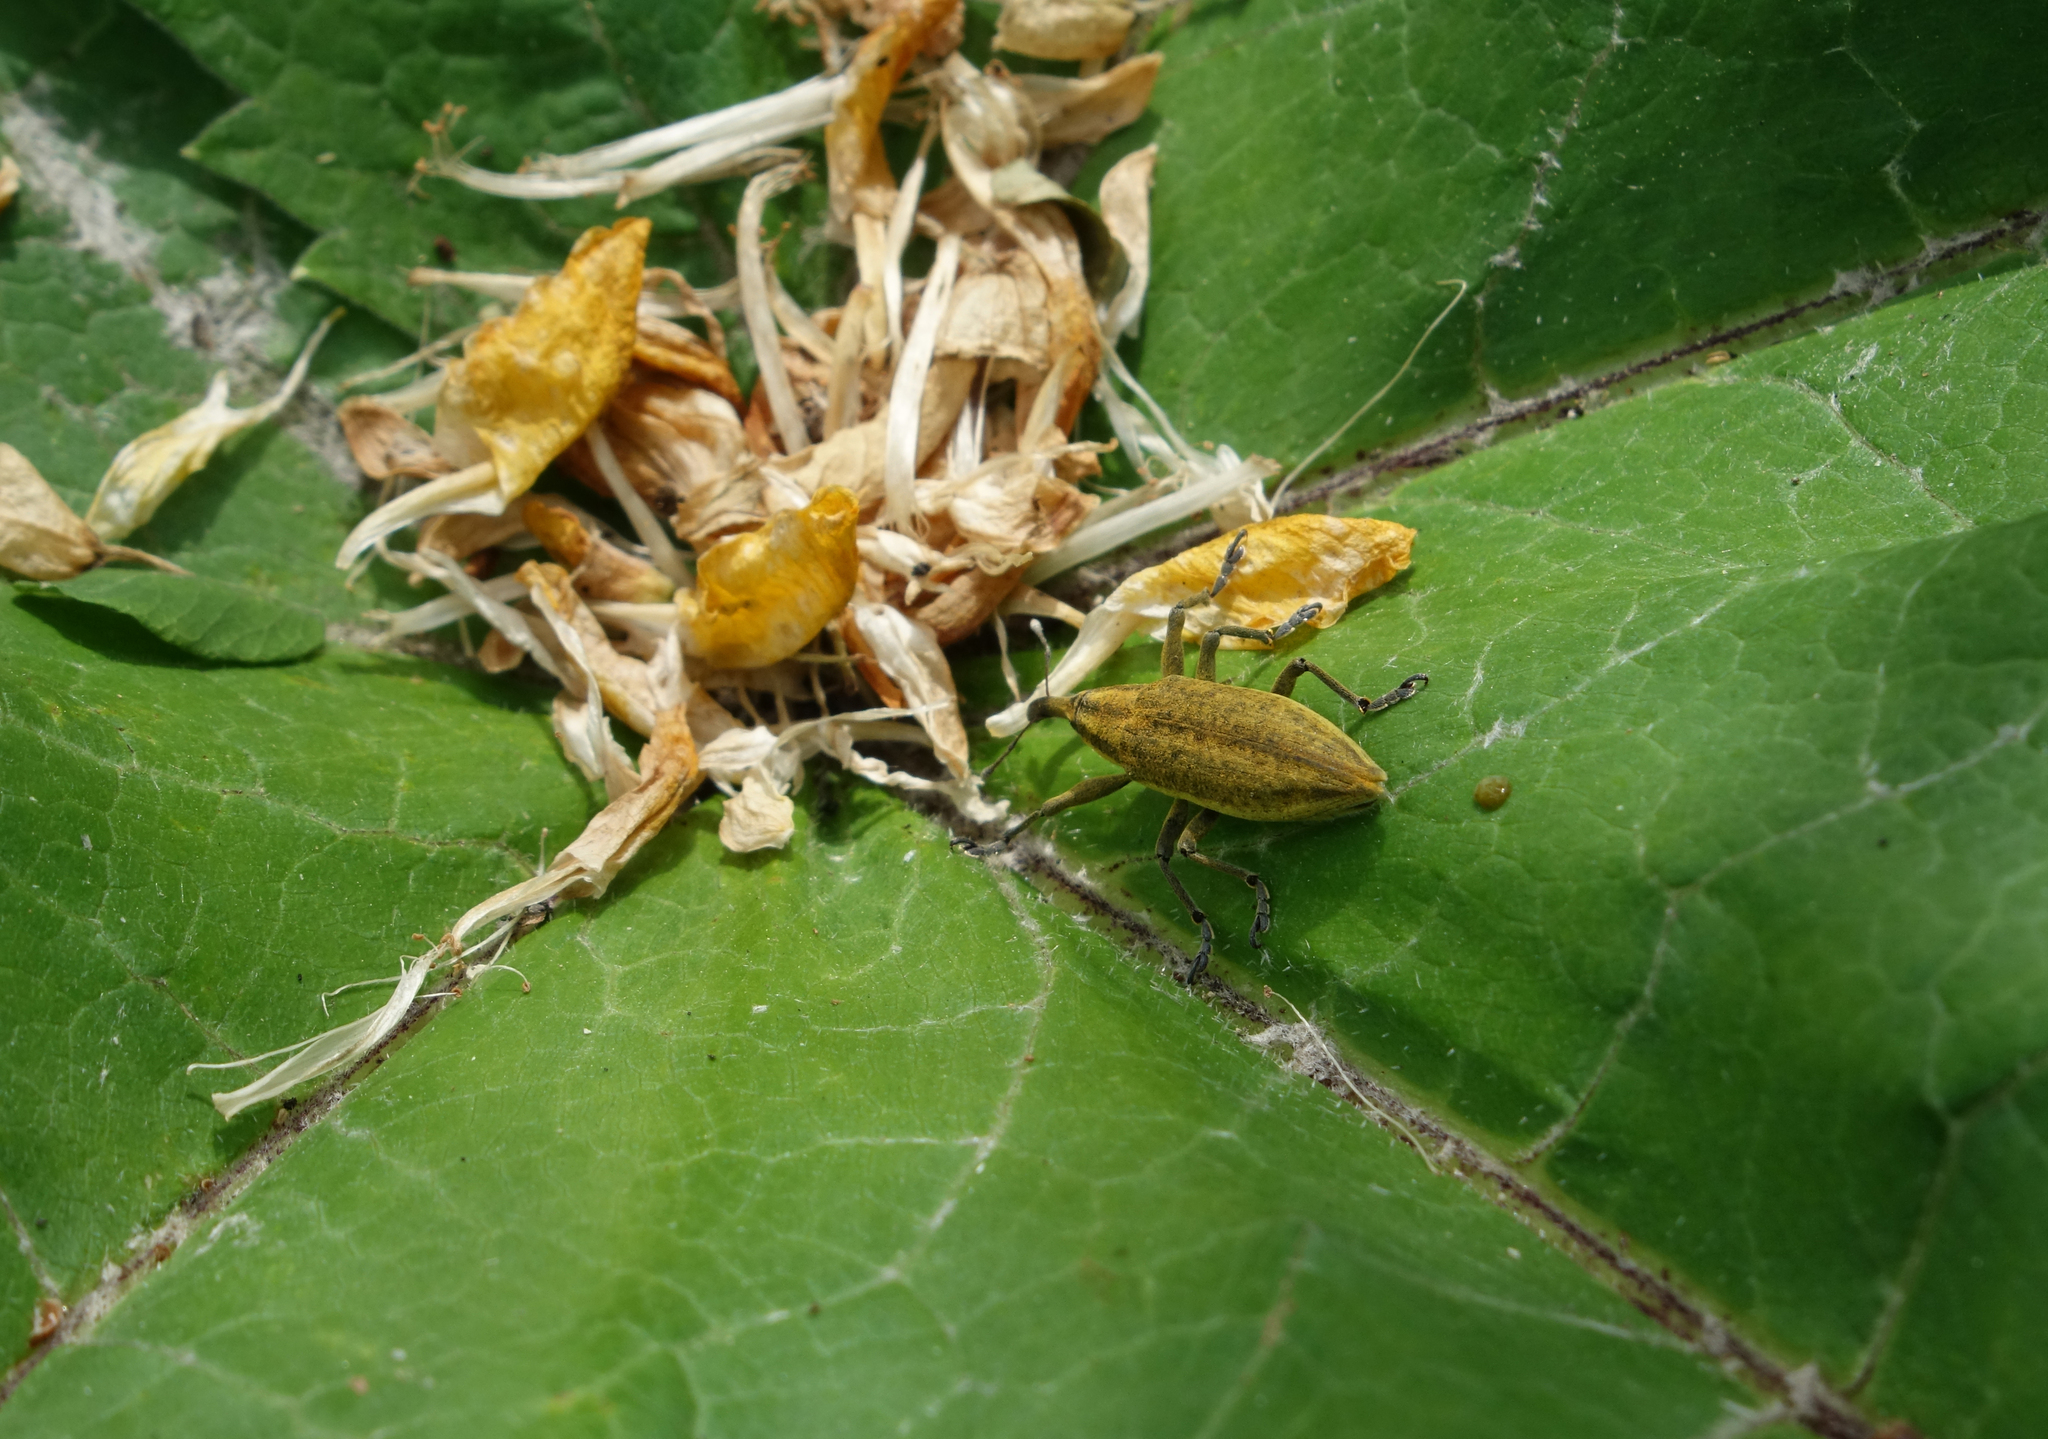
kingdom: Animalia
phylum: Arthropoda
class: Insecta
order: Coleoptera
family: Curculionidae
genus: Lixus
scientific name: Lixus iridis
